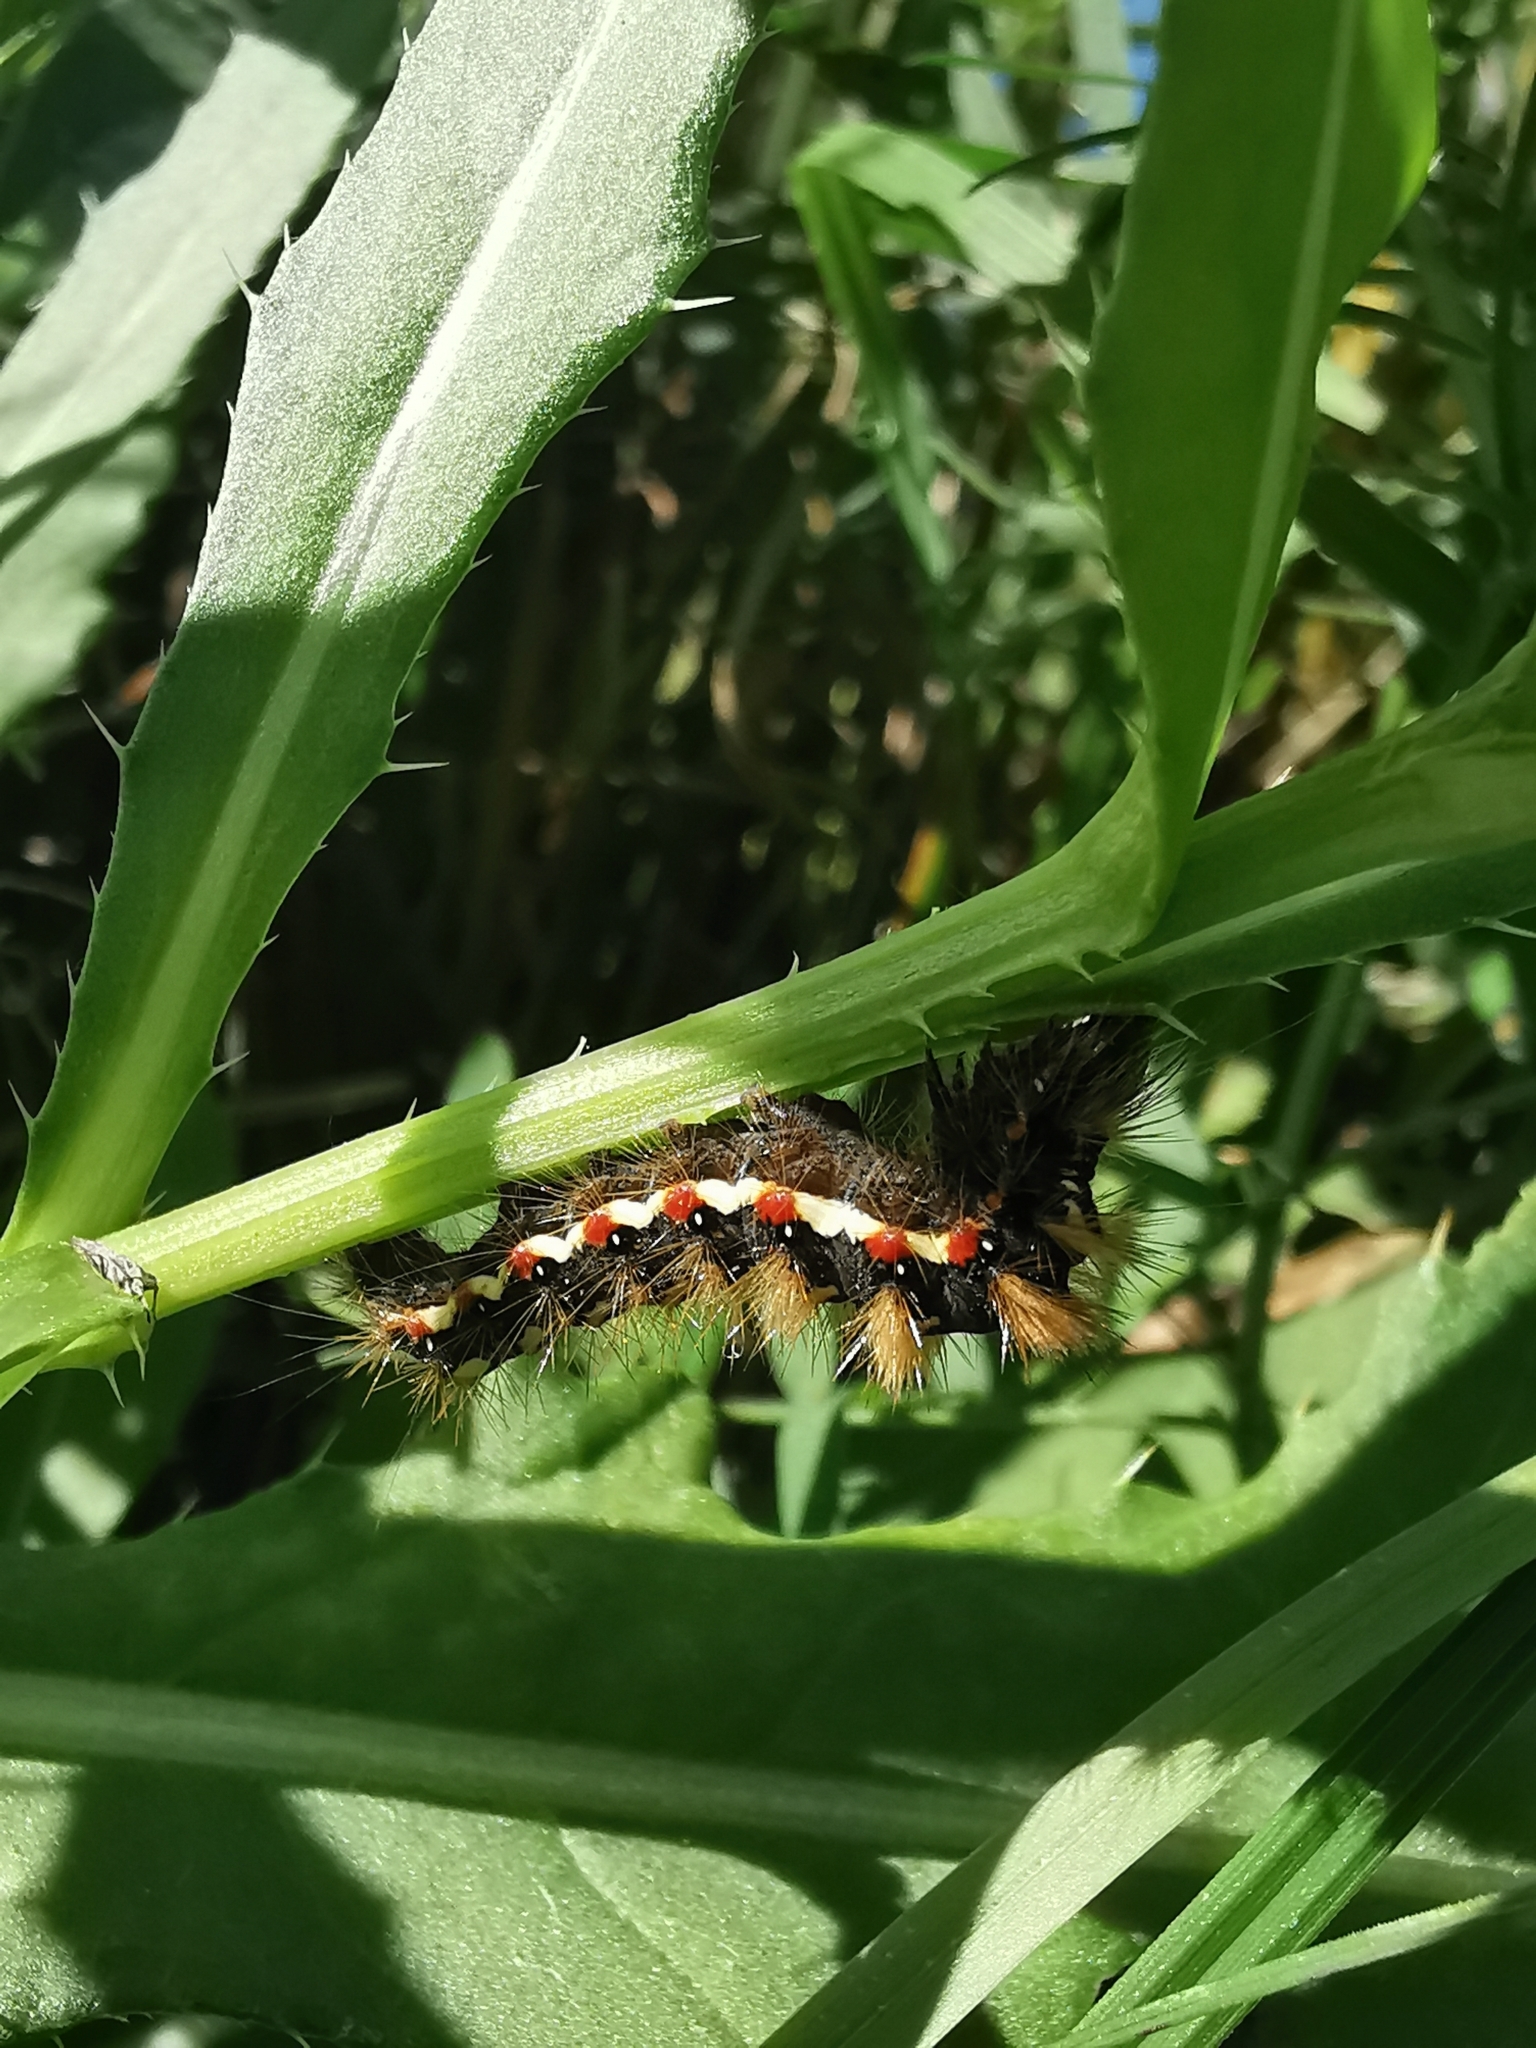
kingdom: Animalia
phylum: Arthropoda
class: Insecta
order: Lepidoptera
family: Noctuidae
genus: Acronicta
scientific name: Acronicta rumicis
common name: Knot grass
